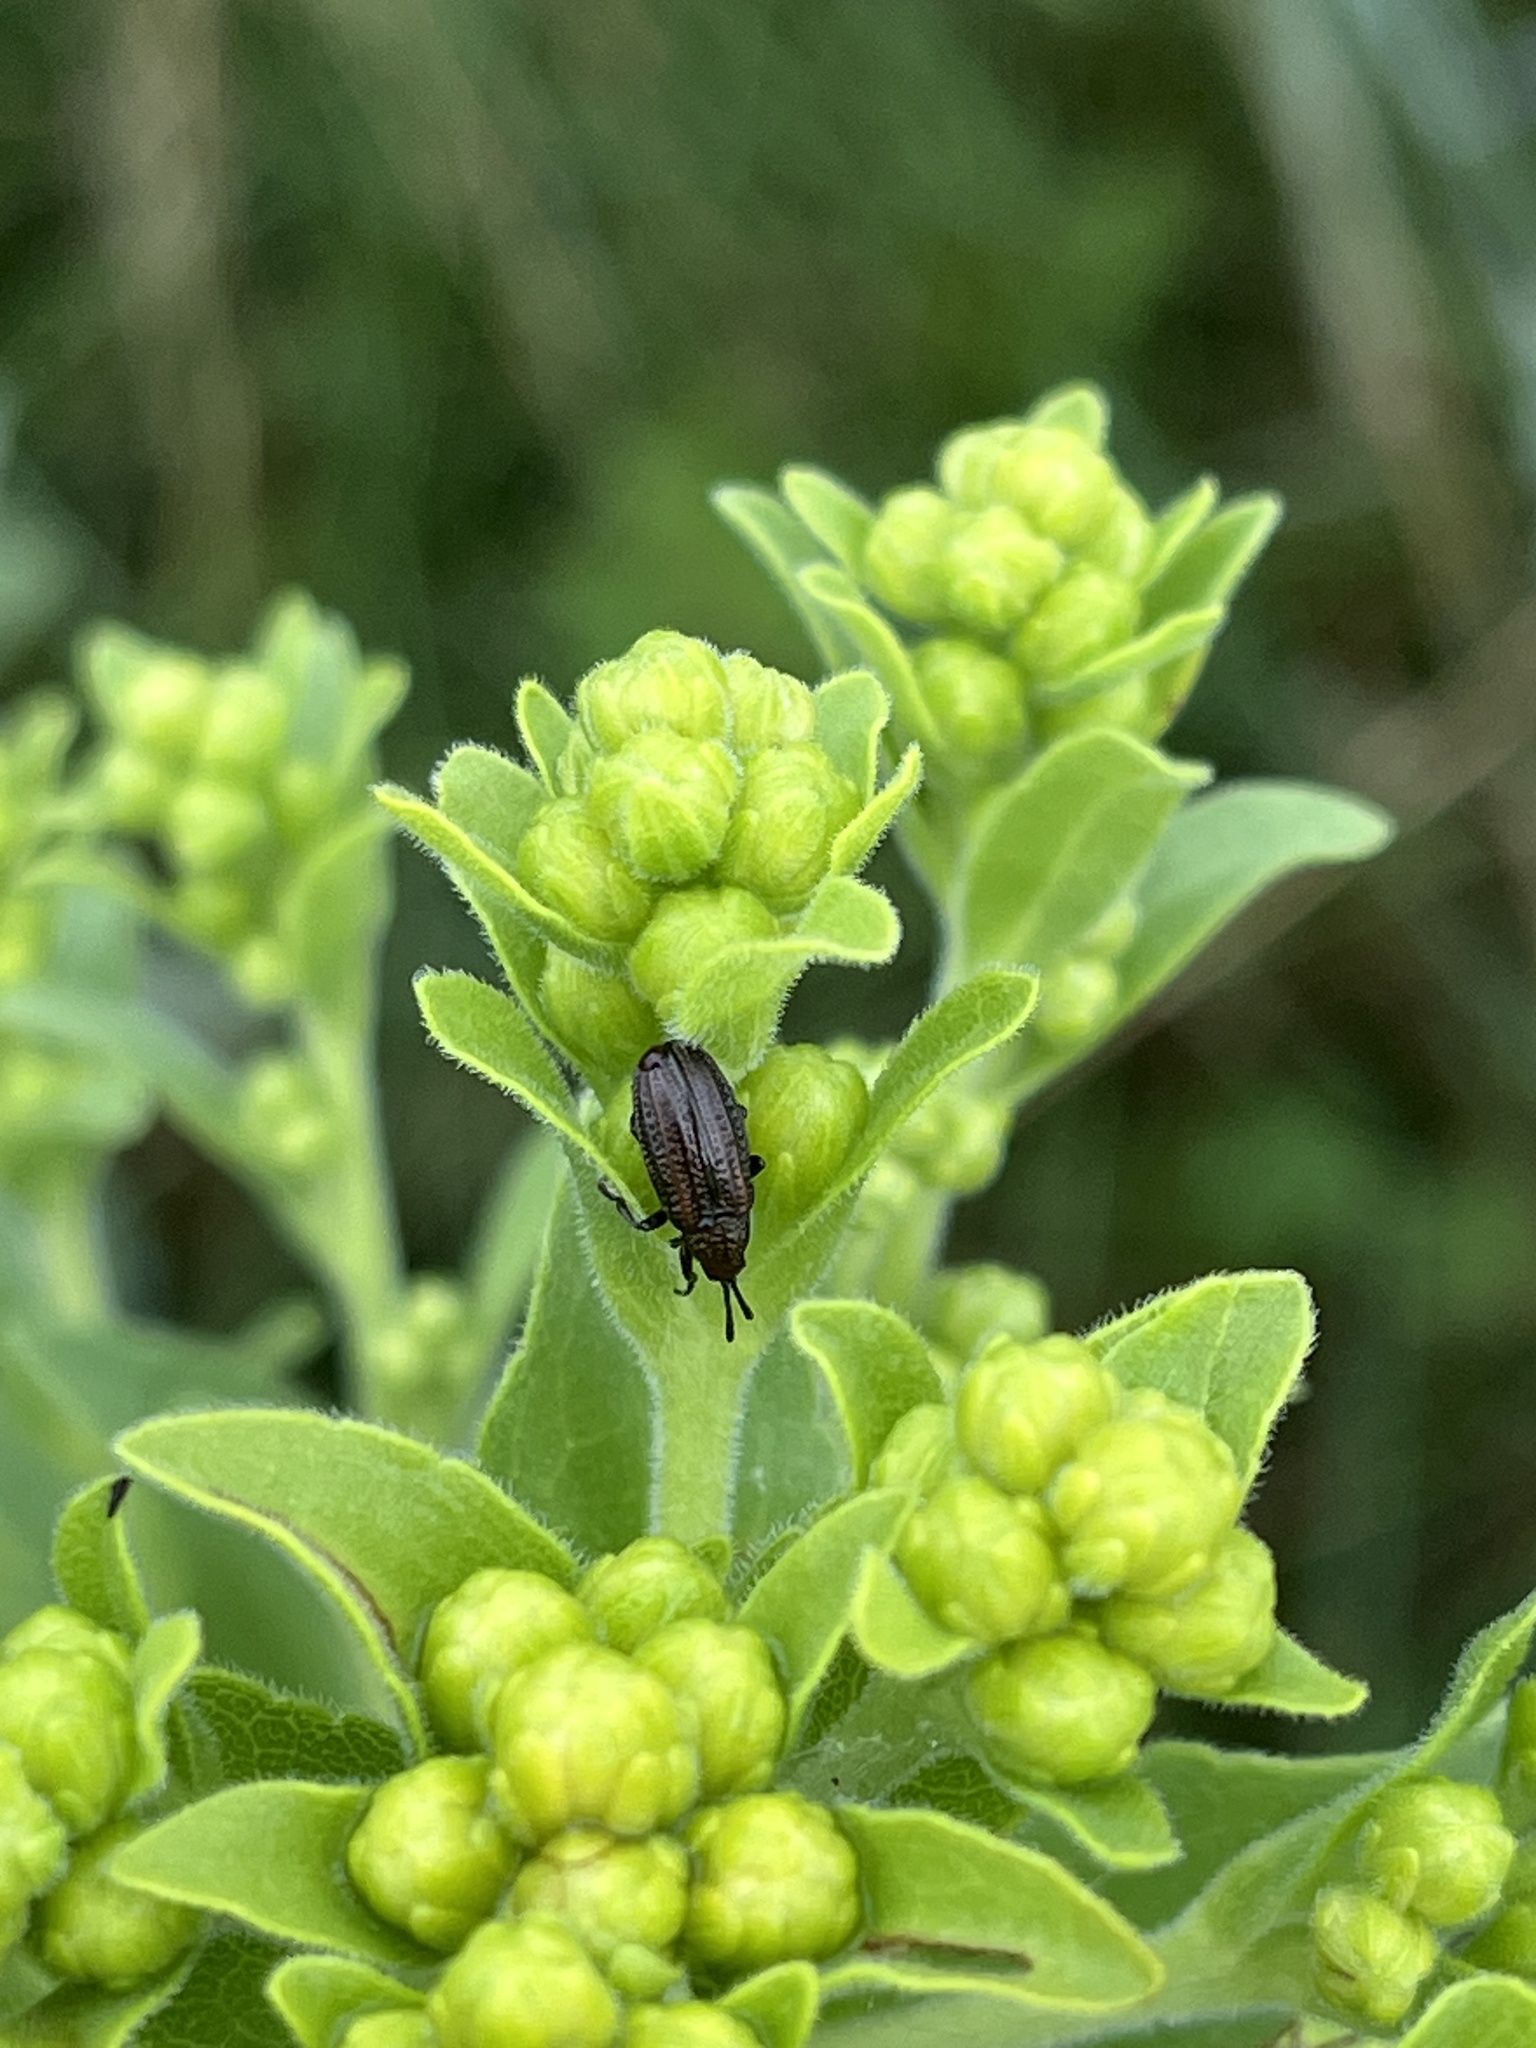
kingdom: Animalia
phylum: Arthropoda
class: Insecta
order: Coleoptera
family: Chrysomelidae
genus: Microrhopala
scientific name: Microrhopala vittata
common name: Goldenrod leaf miner beetle
